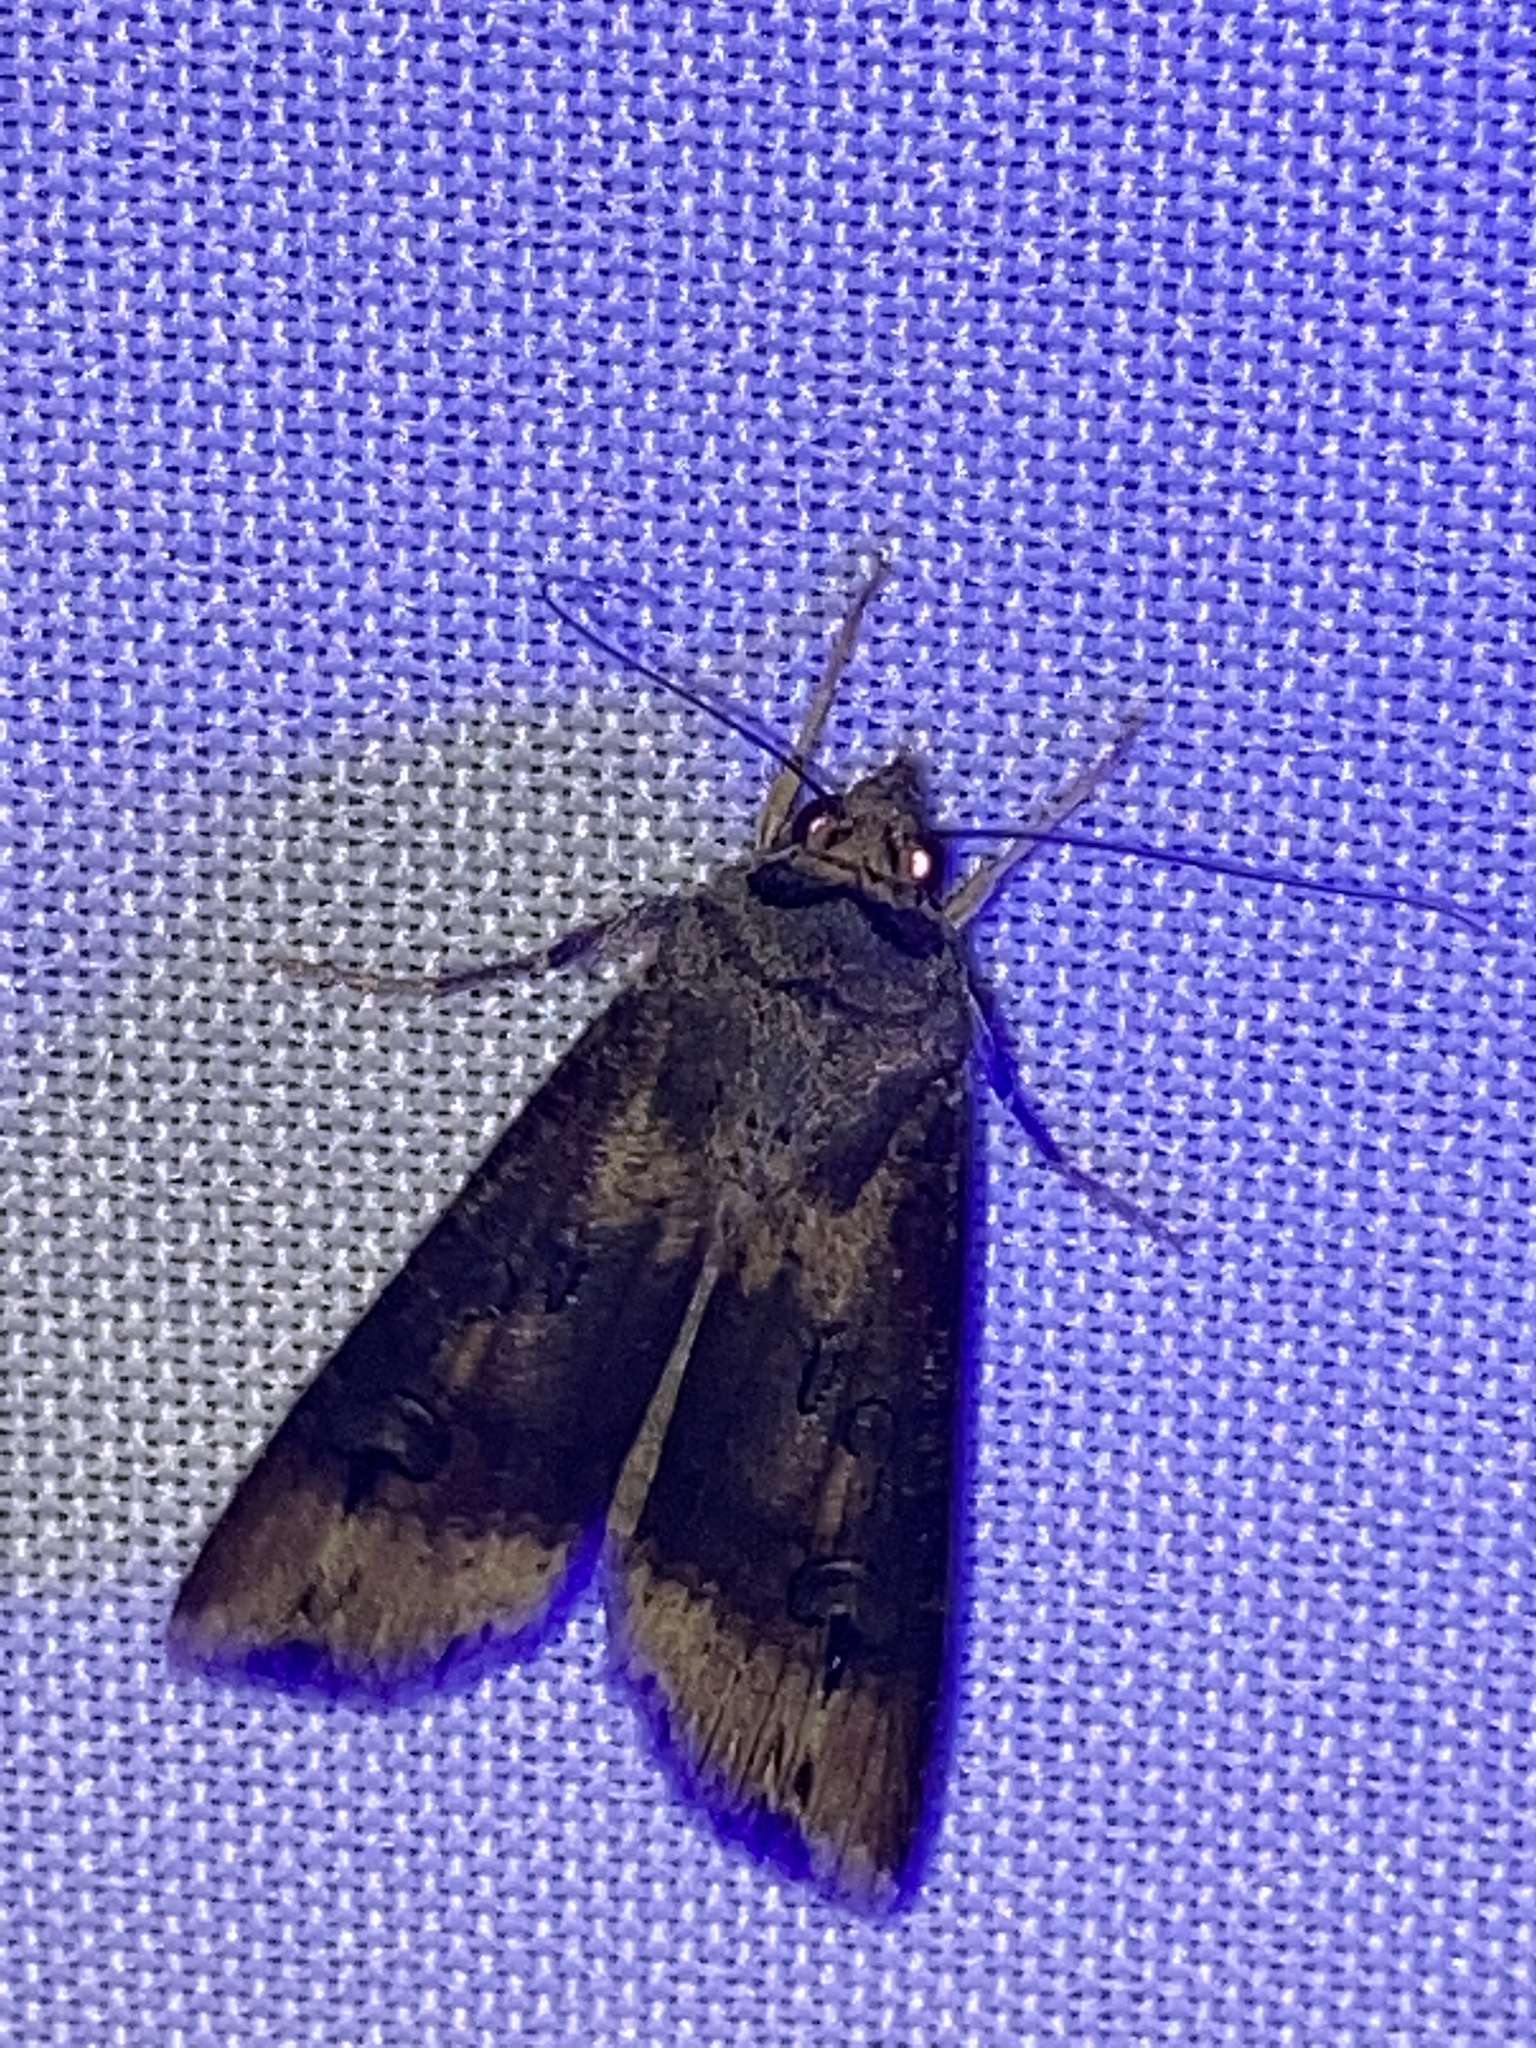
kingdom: Animalia
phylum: Arthropoda
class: Insecta
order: Lepidoptera
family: Noctuidae
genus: Agrotis
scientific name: Agrotis ipsilon
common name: Dark sword-grass
